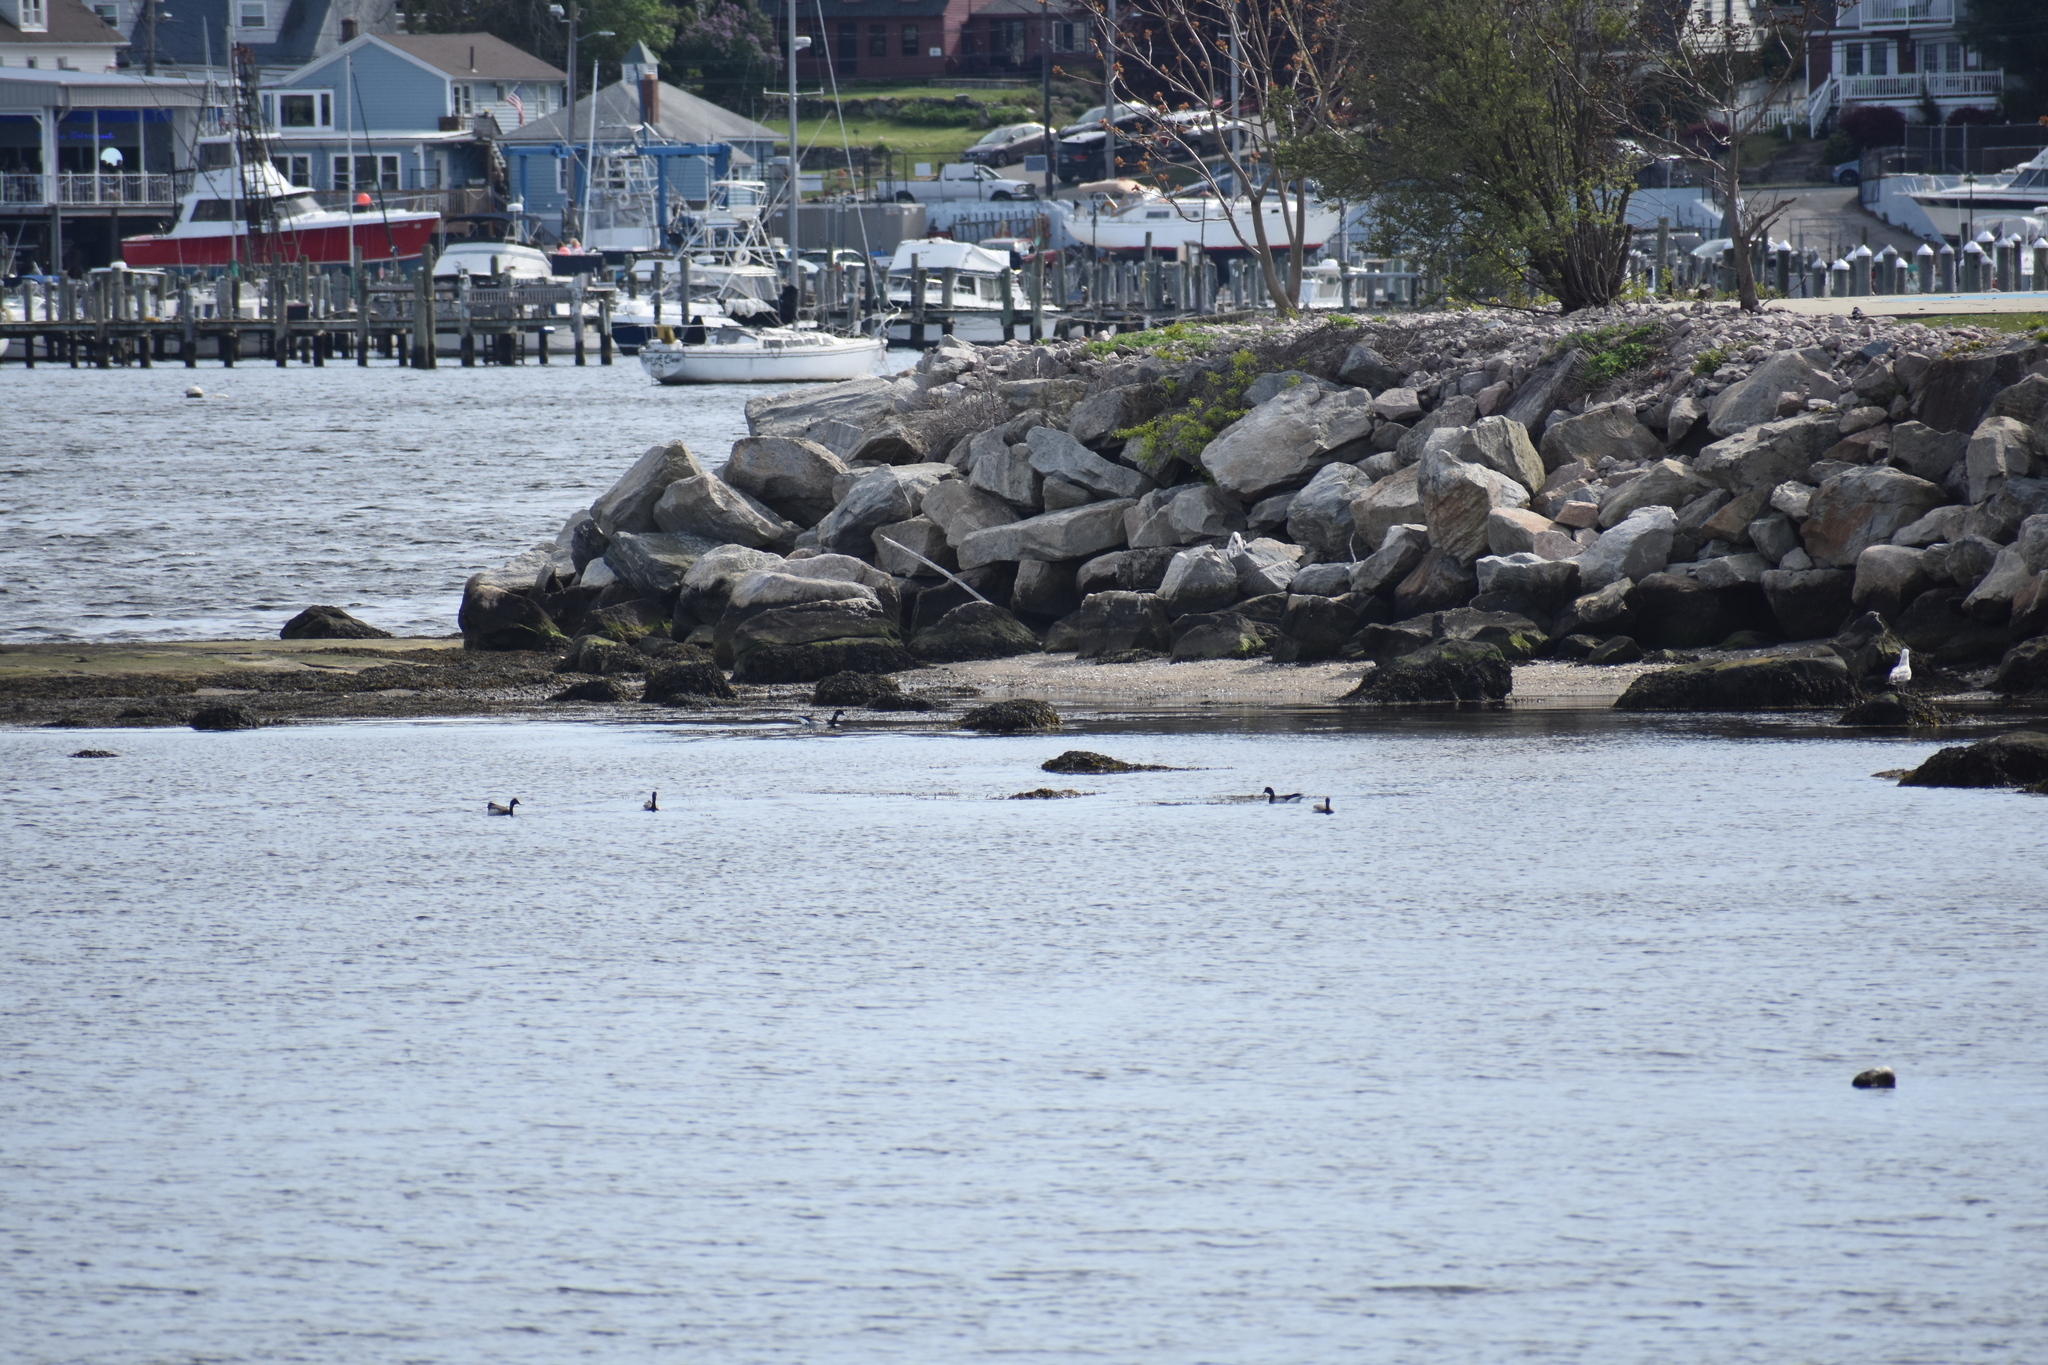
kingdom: Animalia
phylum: Chordata
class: Aves
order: Anseriformes
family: Anatidae
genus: Branta
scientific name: Branta bernicla
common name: Brant goose
